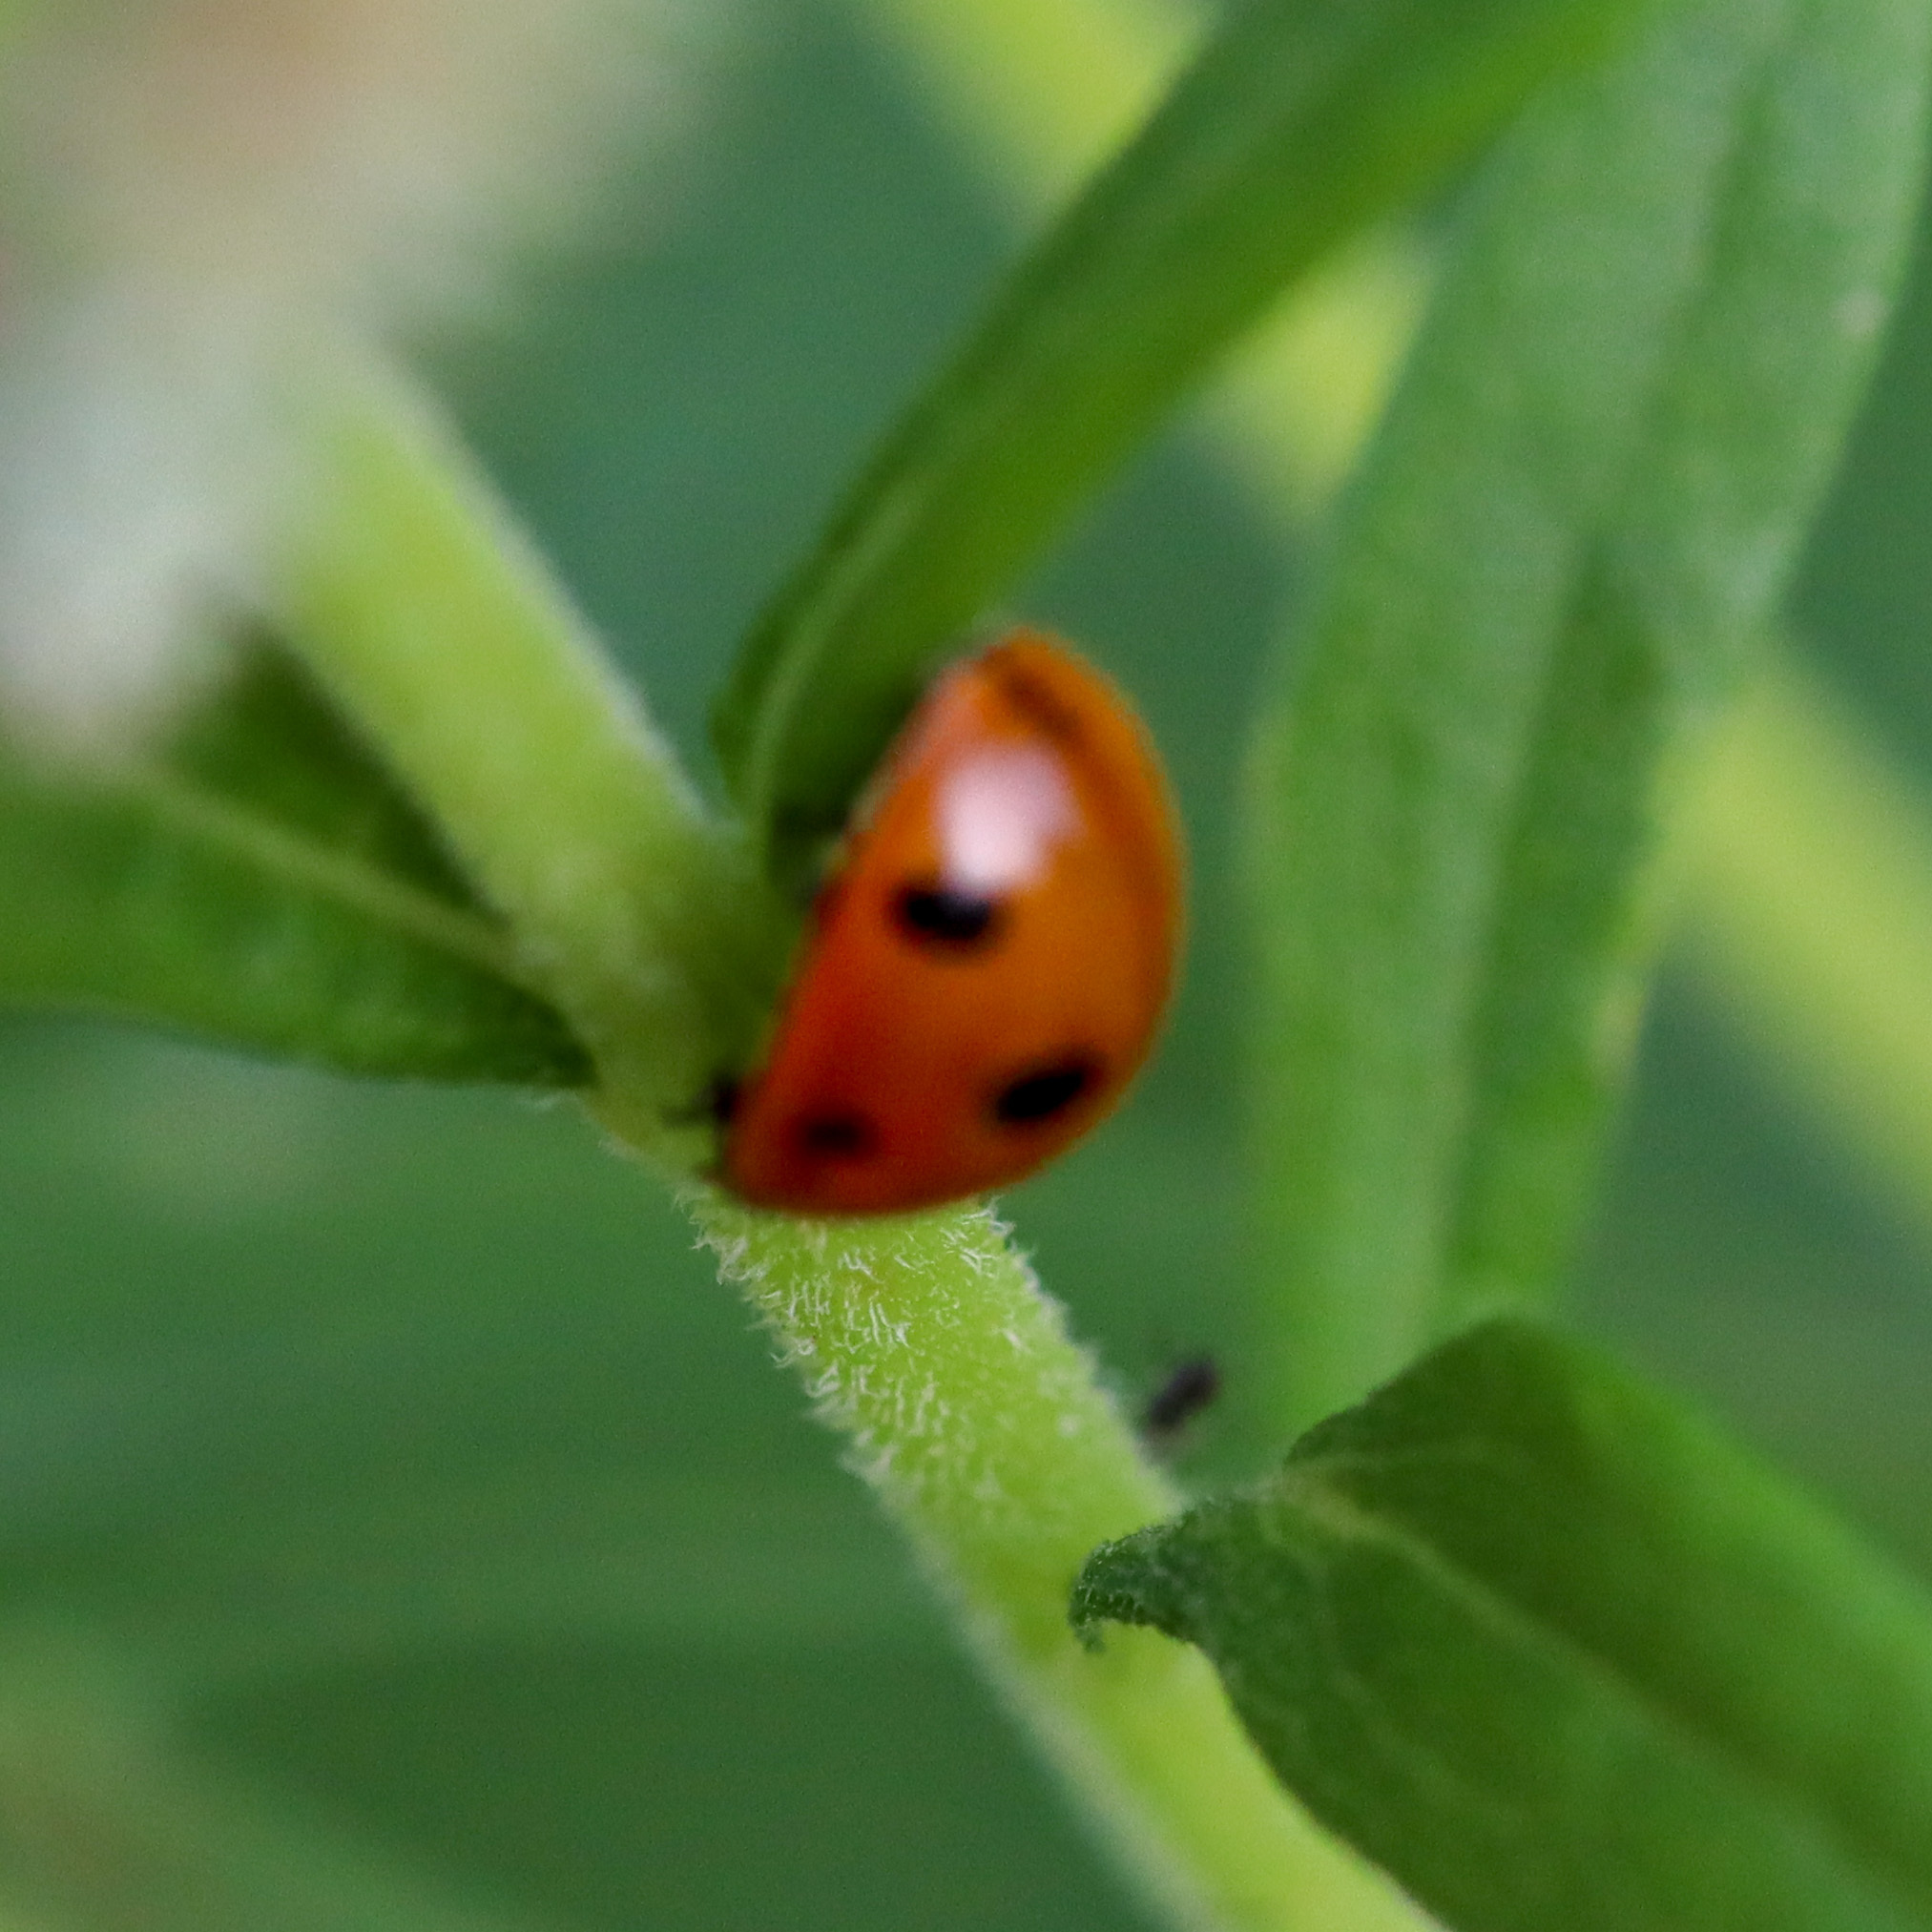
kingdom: Animalia
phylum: Arthropoda
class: Insecta
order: Coleoptera
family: Coccinellidae
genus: Coccinella
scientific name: Coccinella septempunctata
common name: Sevenspotted lady beetle
